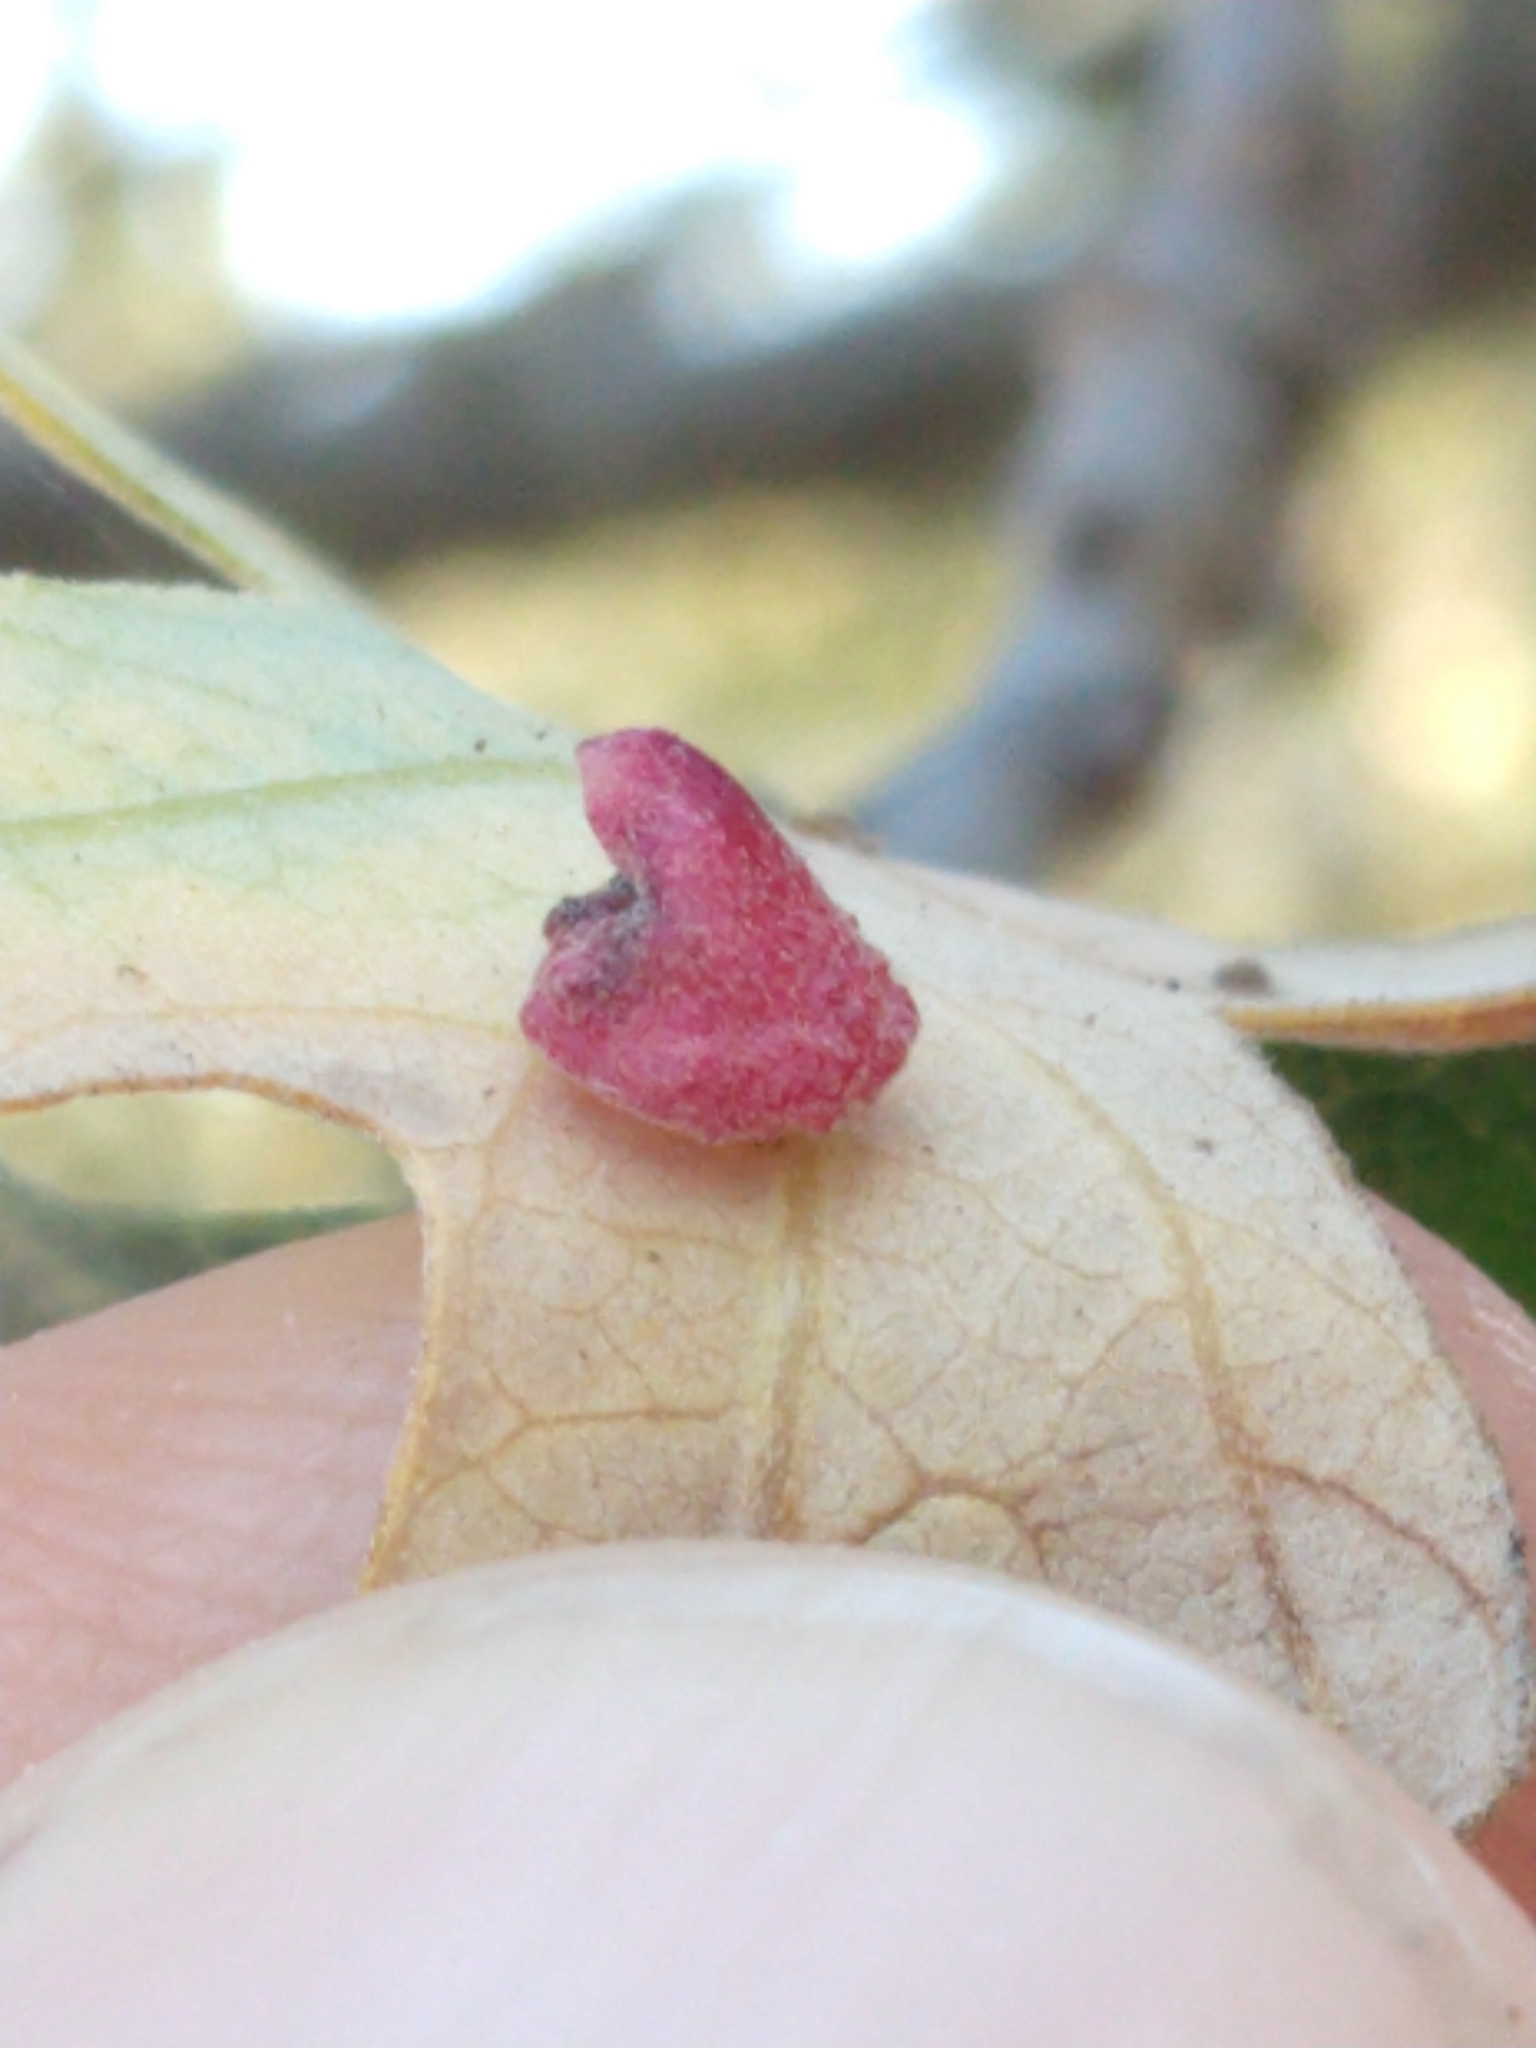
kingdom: Animalia
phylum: Arthropoda
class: Insecta
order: Hymenoptera
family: Cynipidae
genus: Andricus
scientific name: Andricus
